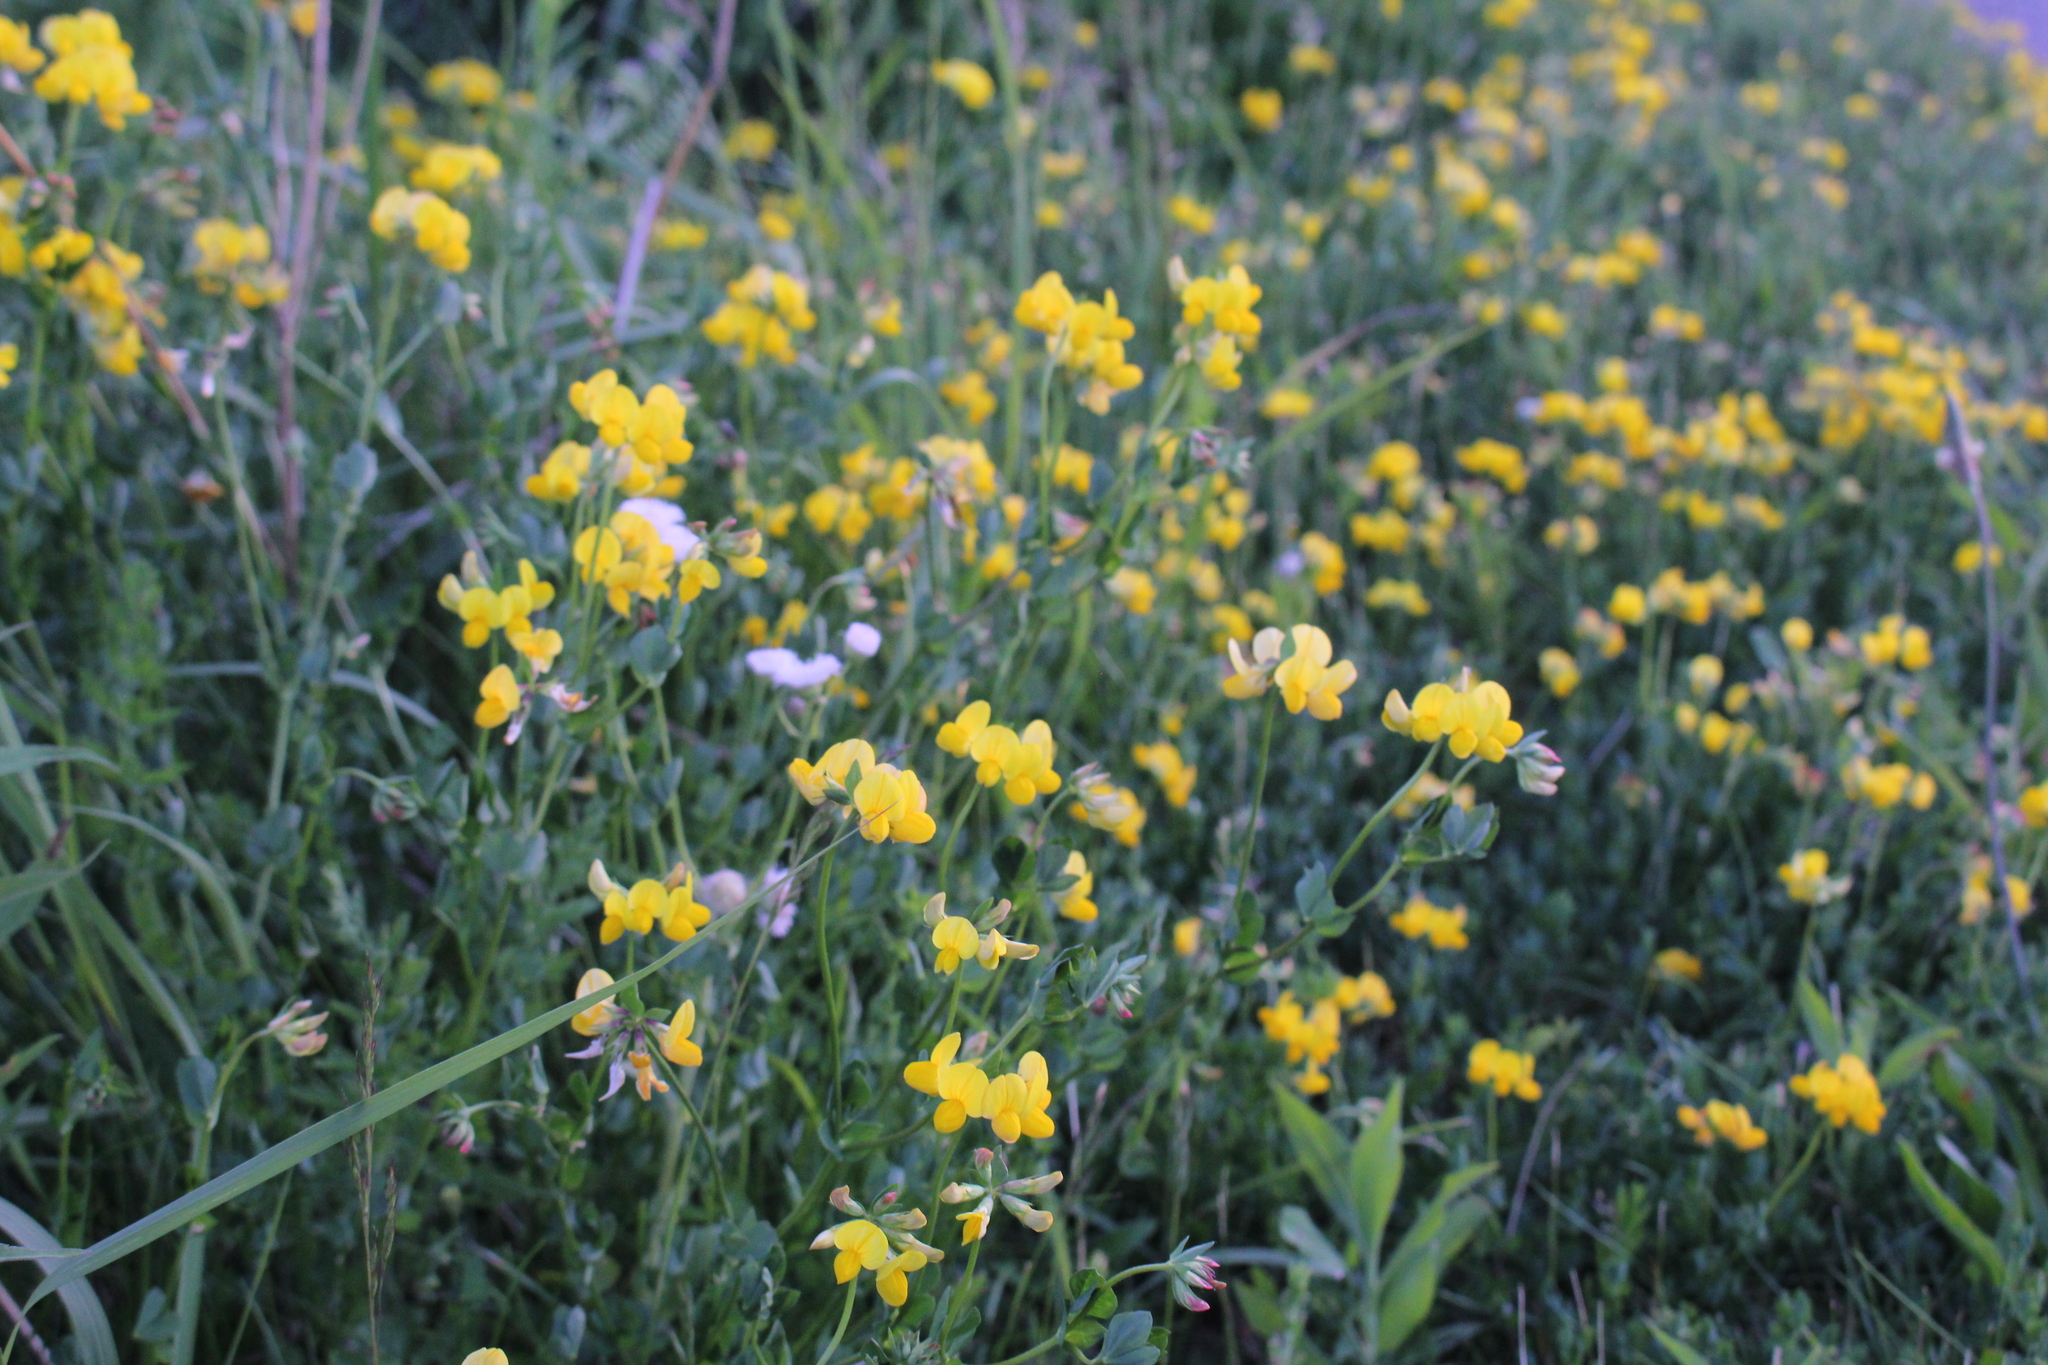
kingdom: Plantae
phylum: Tracheophyta
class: Magnoliopsida
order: Fabales
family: Fabaceae
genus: Lotus
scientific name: Lotus corniculatus
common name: Common bird's-foot-trefoil
